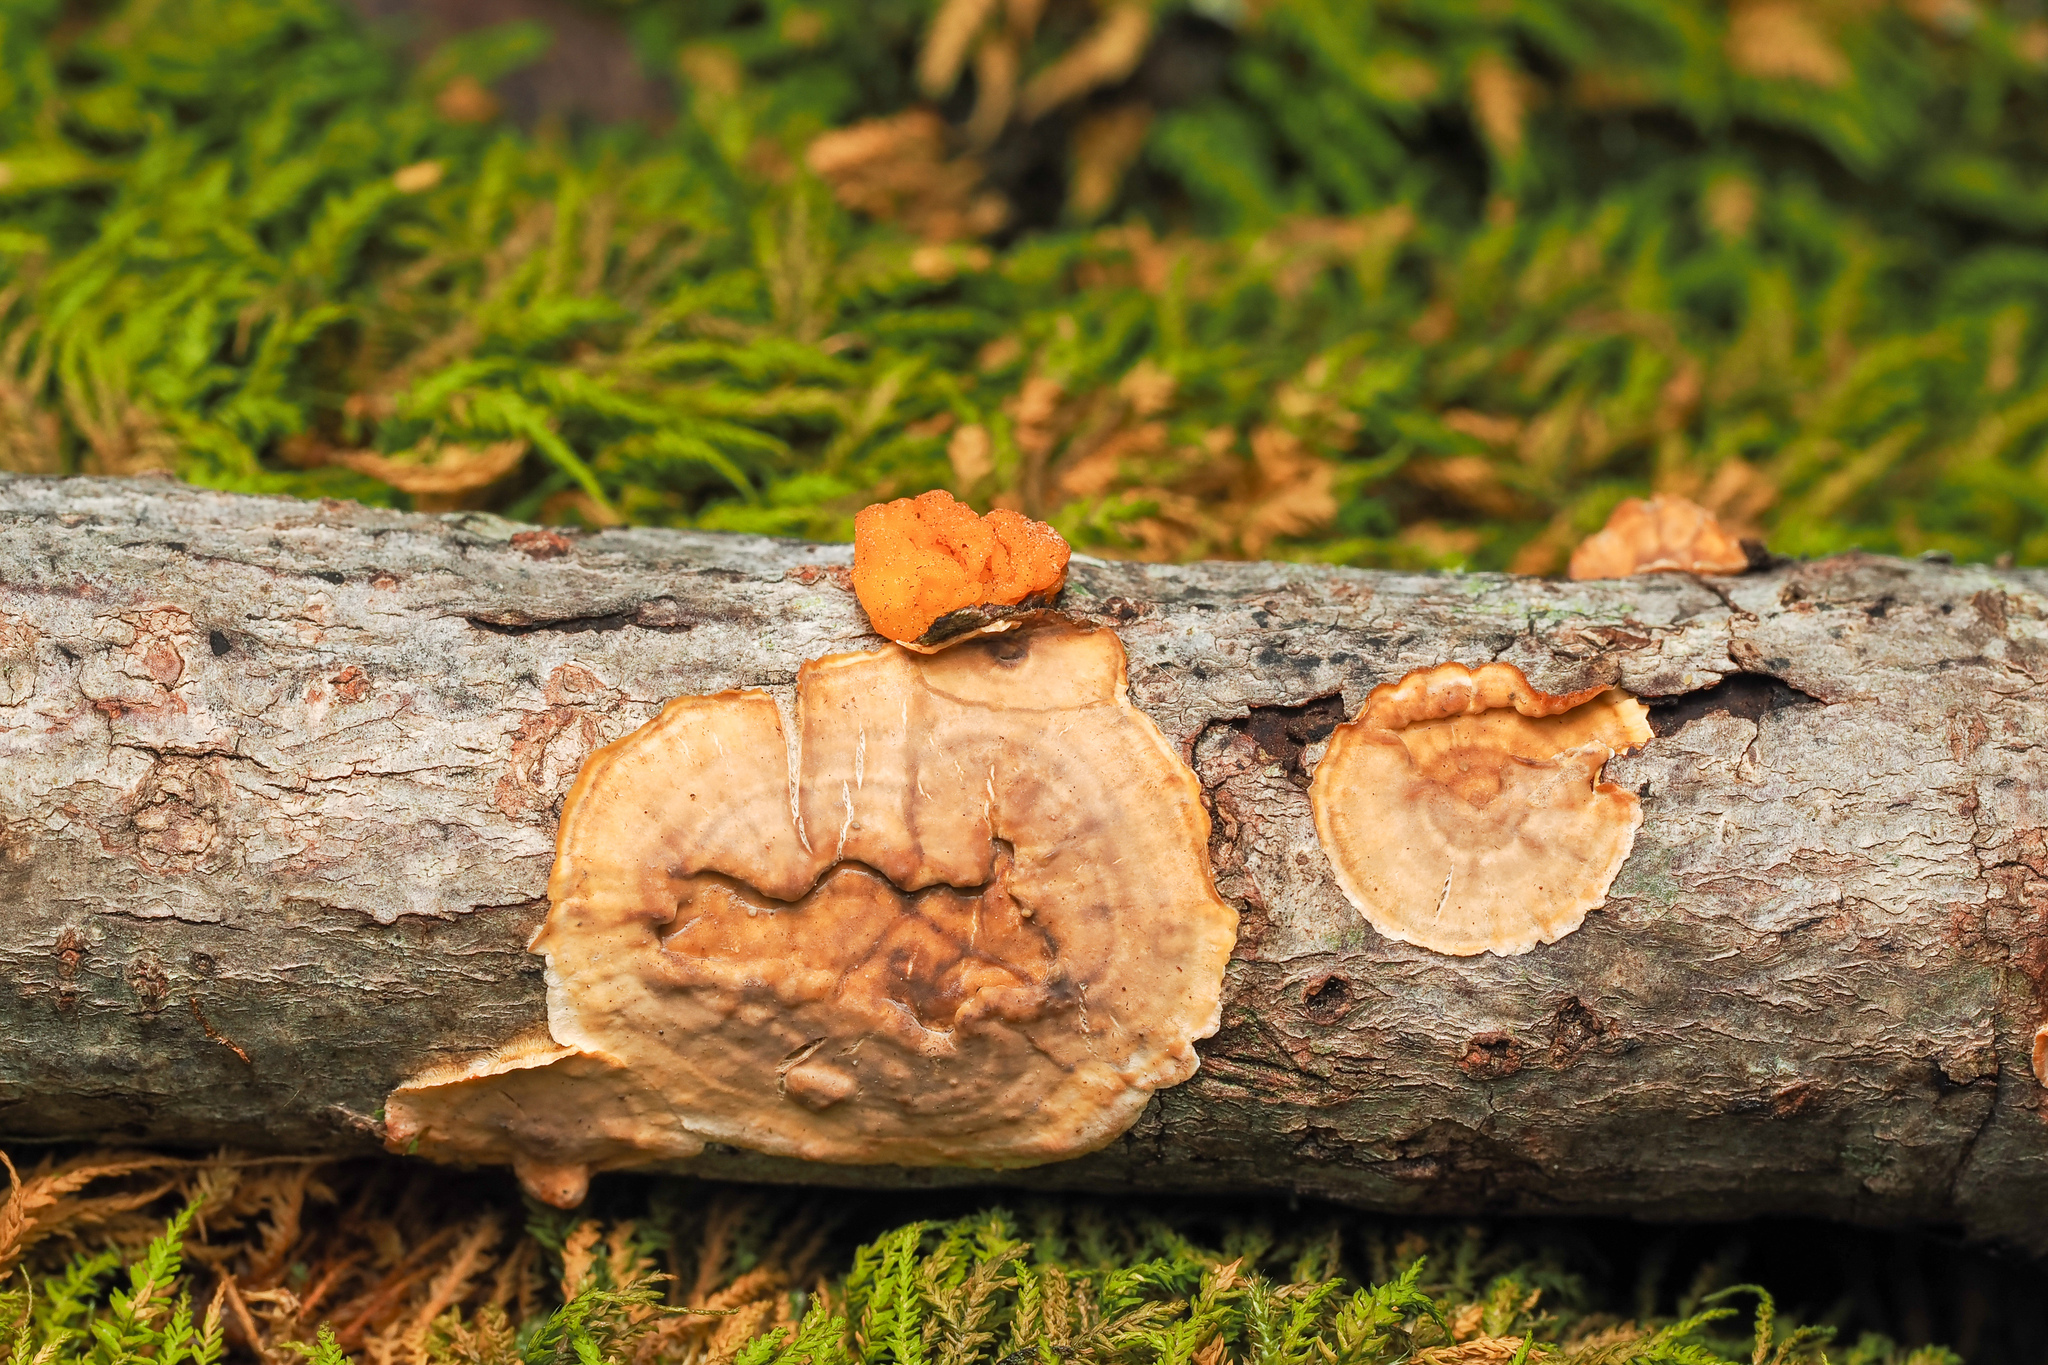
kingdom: Fungi
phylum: Basidiomycota
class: Tremellomycetes
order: Tremellales
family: Naemateliaceae
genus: Naematelia
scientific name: Naematelia aurantia
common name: Golden ear
